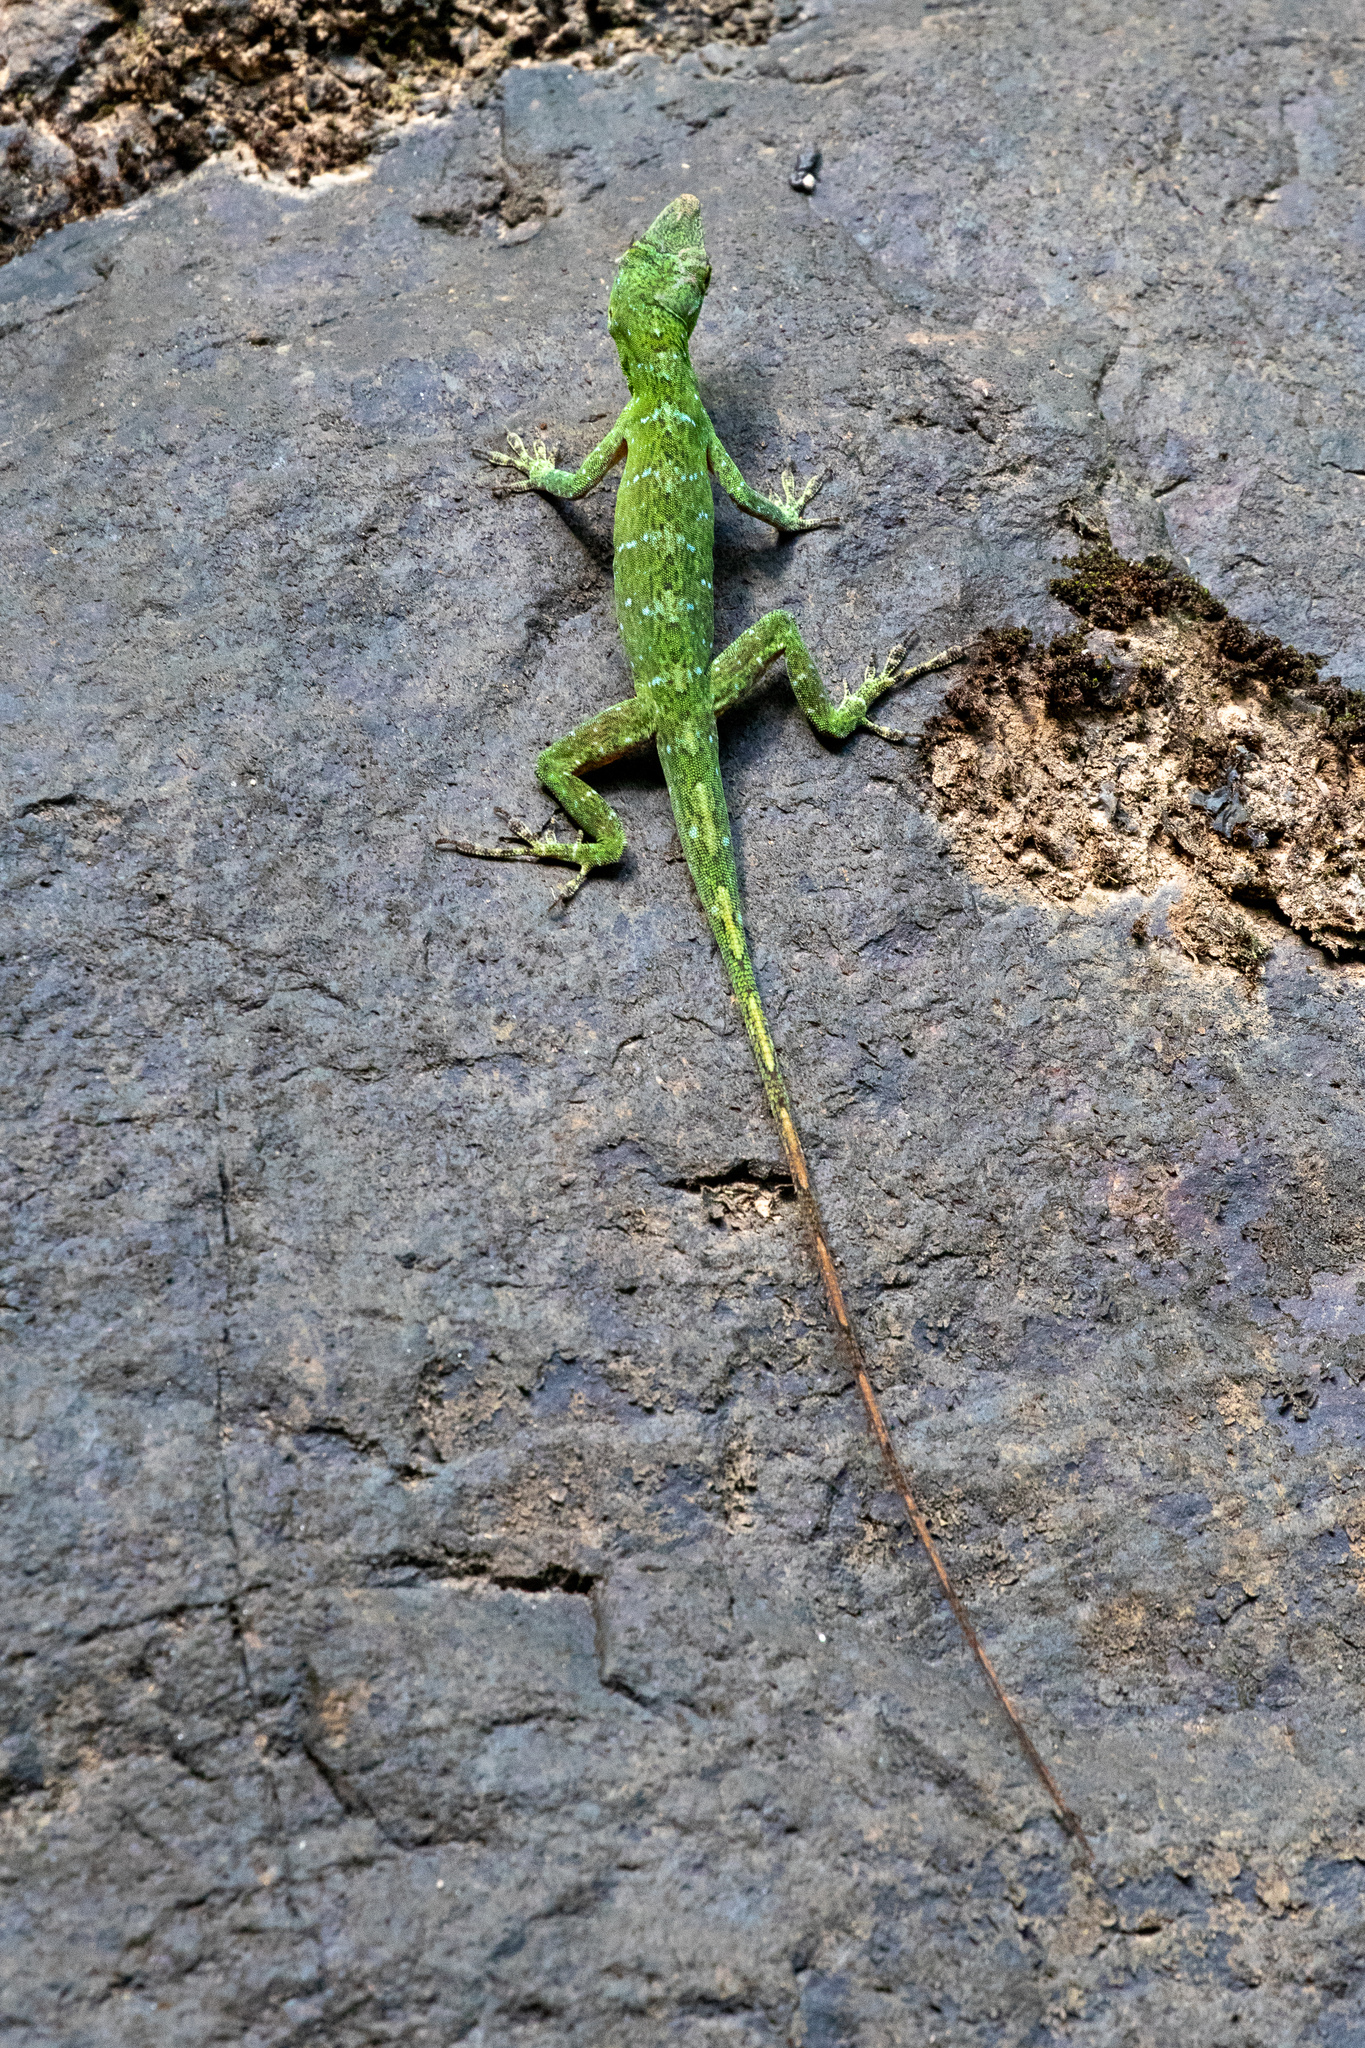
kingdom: Animalia
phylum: Chordata
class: Squamata
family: Dactyloidae
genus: Anolis
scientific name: Anolis punctatus
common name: Amazon green anole
